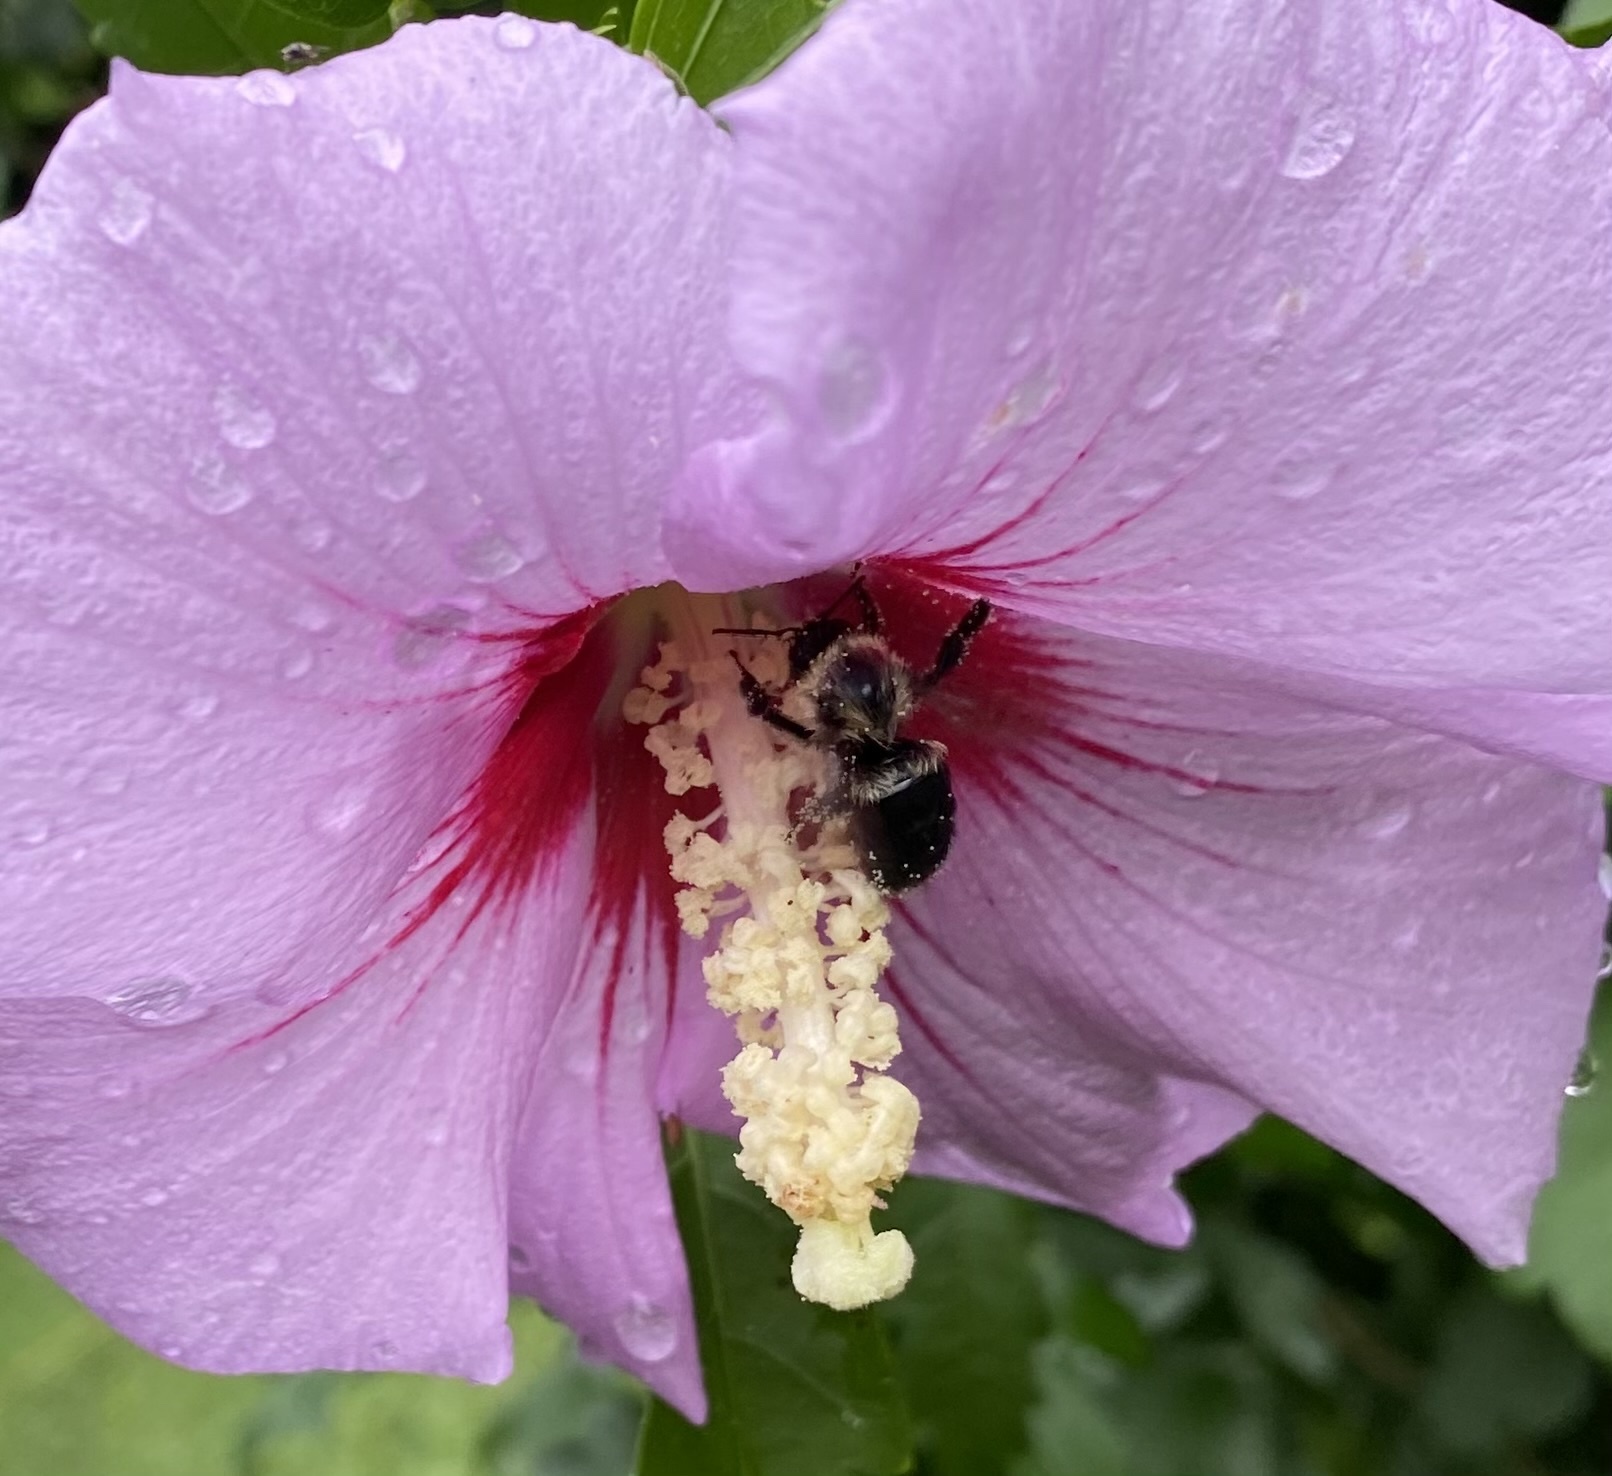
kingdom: Animalia
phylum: Arthropoda
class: Insecta
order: Hymenoptera
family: Apidae
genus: Bombus
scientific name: Bombus impatiens
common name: Common eastern bumble bee
